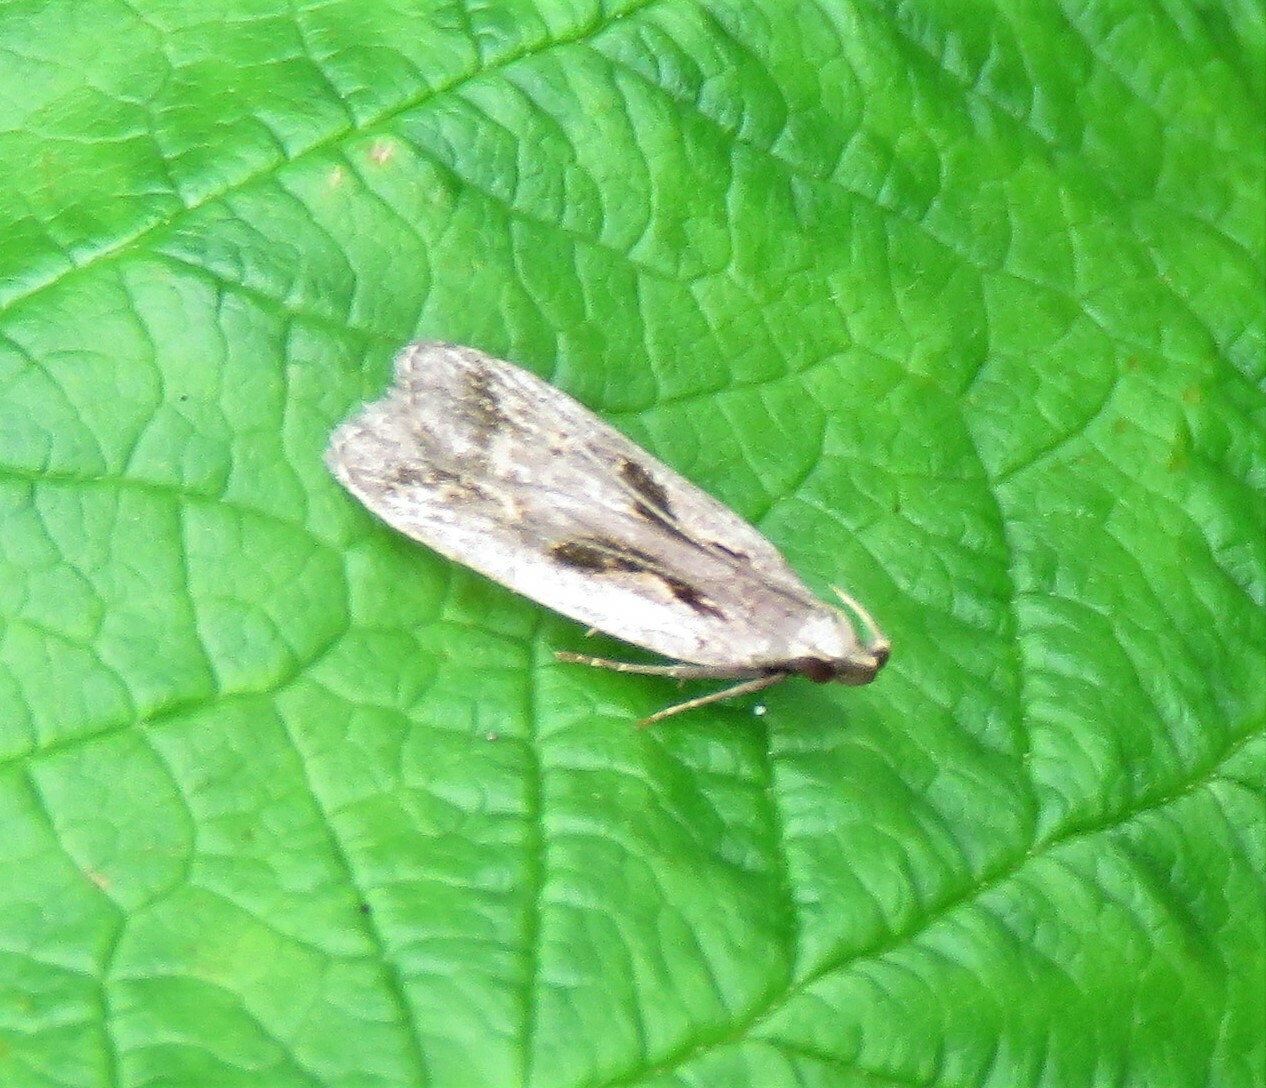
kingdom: Animalia
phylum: Arthropoda
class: Insecta
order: Lepidoptera
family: Gelechiidae
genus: Dichomeris
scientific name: Dichomeris bilobella
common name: Bilobed dichomeris moth
